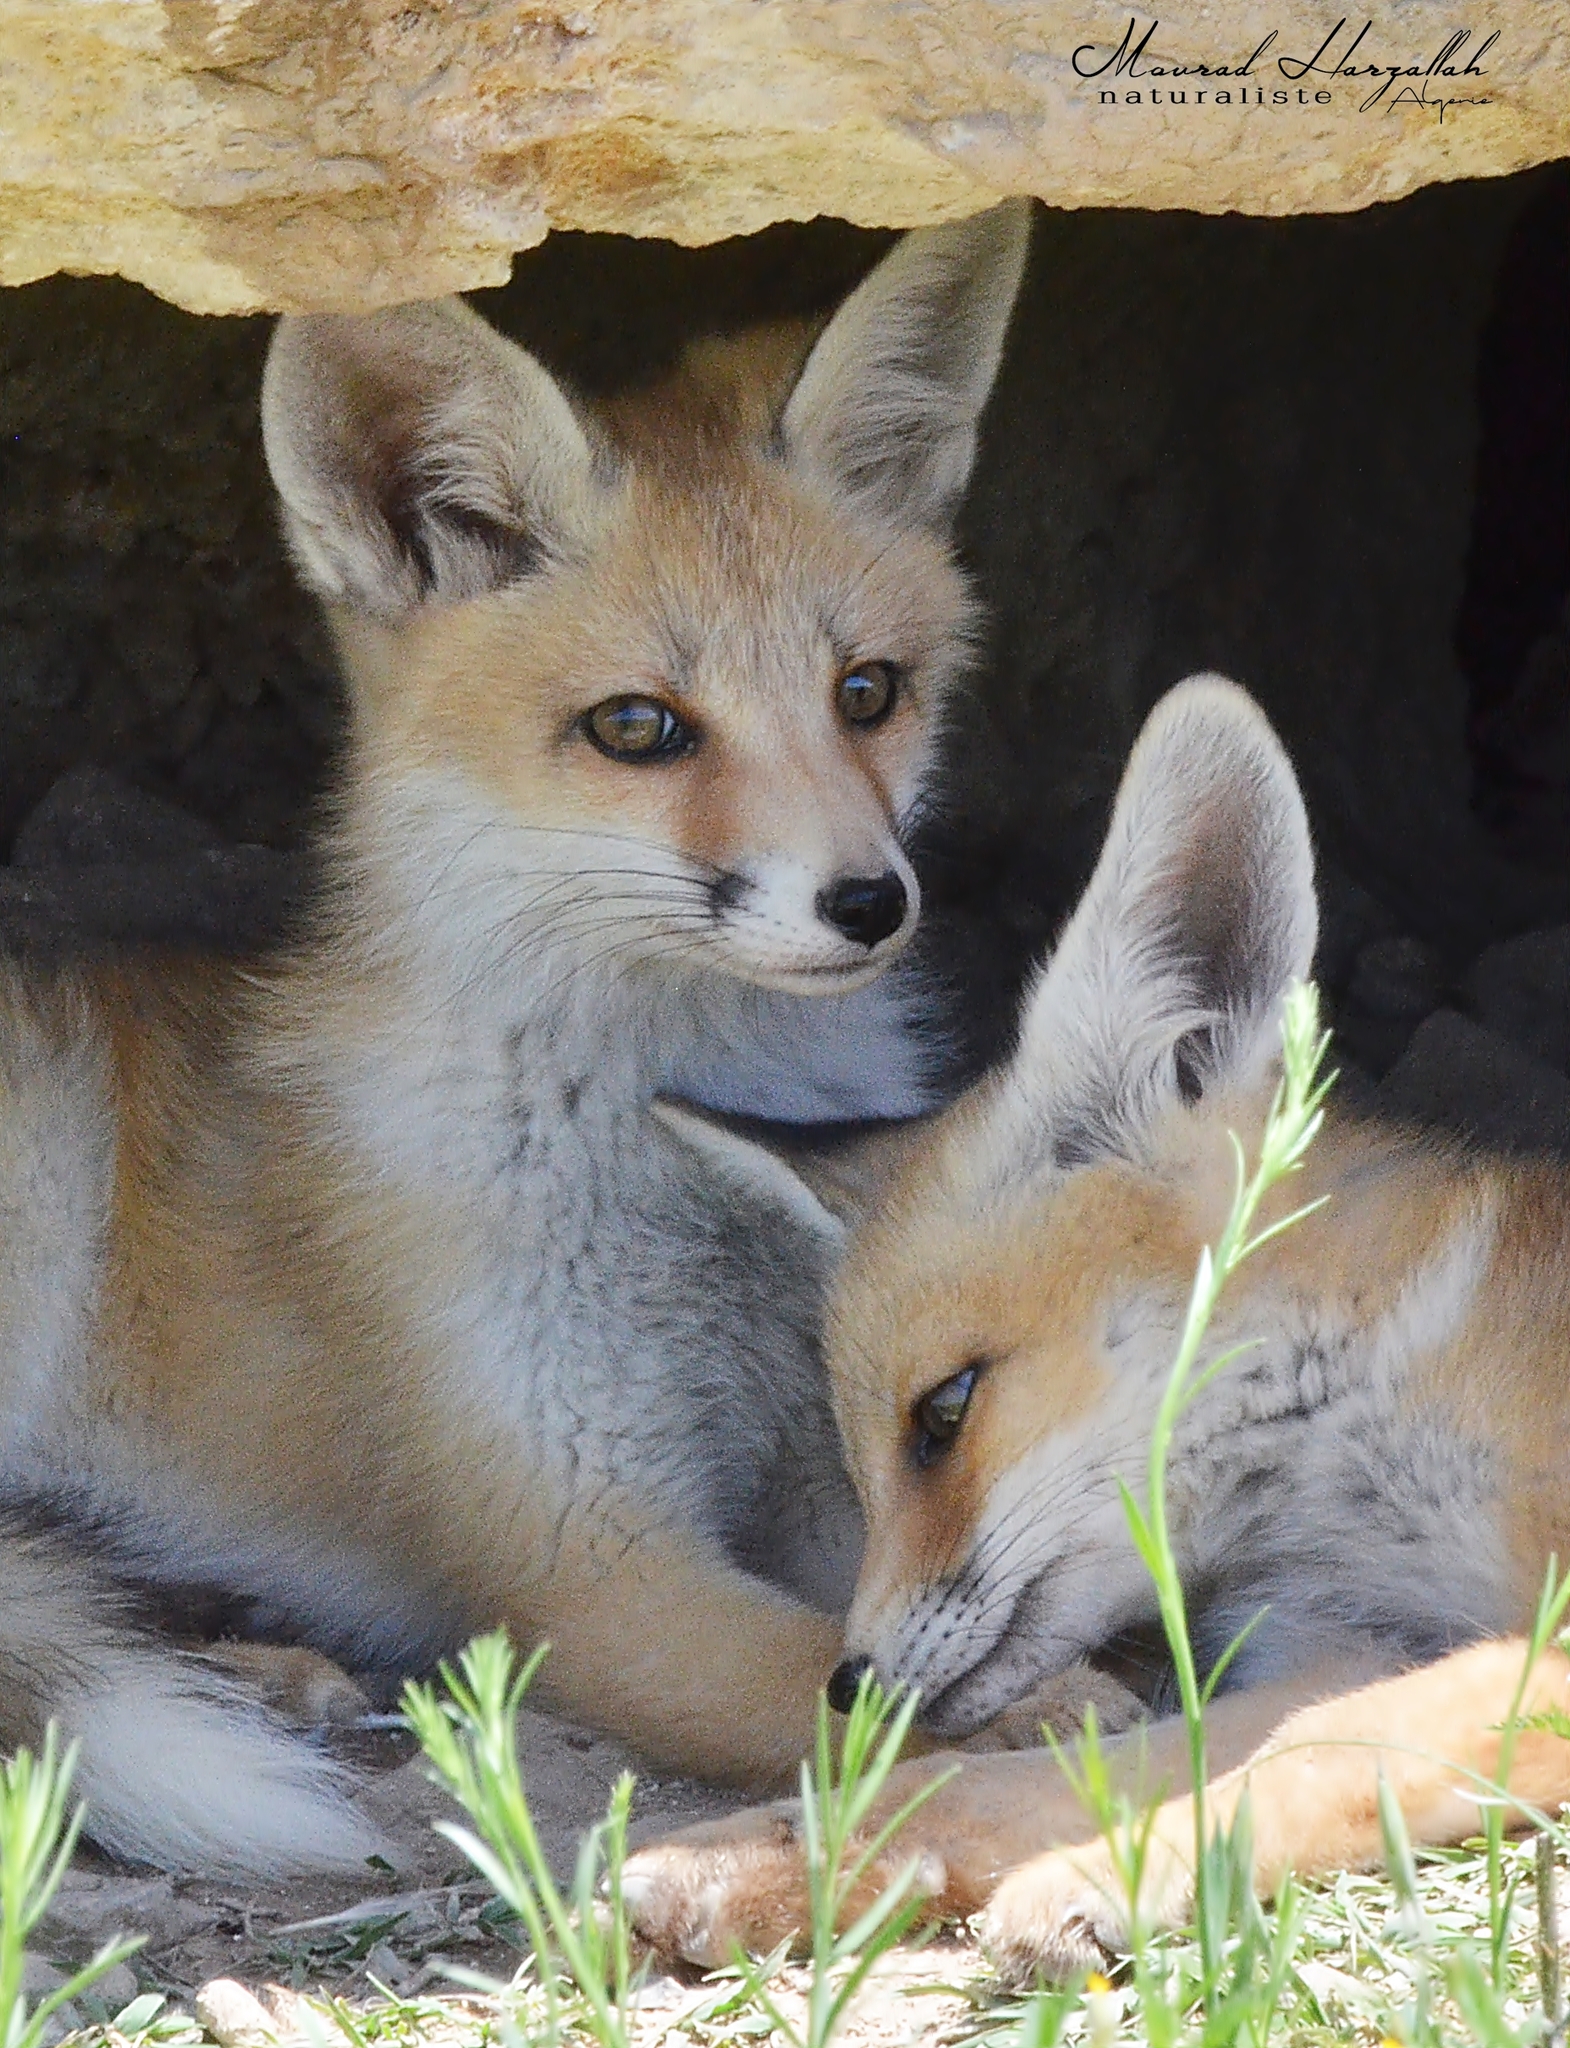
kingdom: Animalia
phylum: Chordata
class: Mammalia
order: Carnivora
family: Canidae
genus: Vulpes
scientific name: Vulpes vulpes
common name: Red fox
